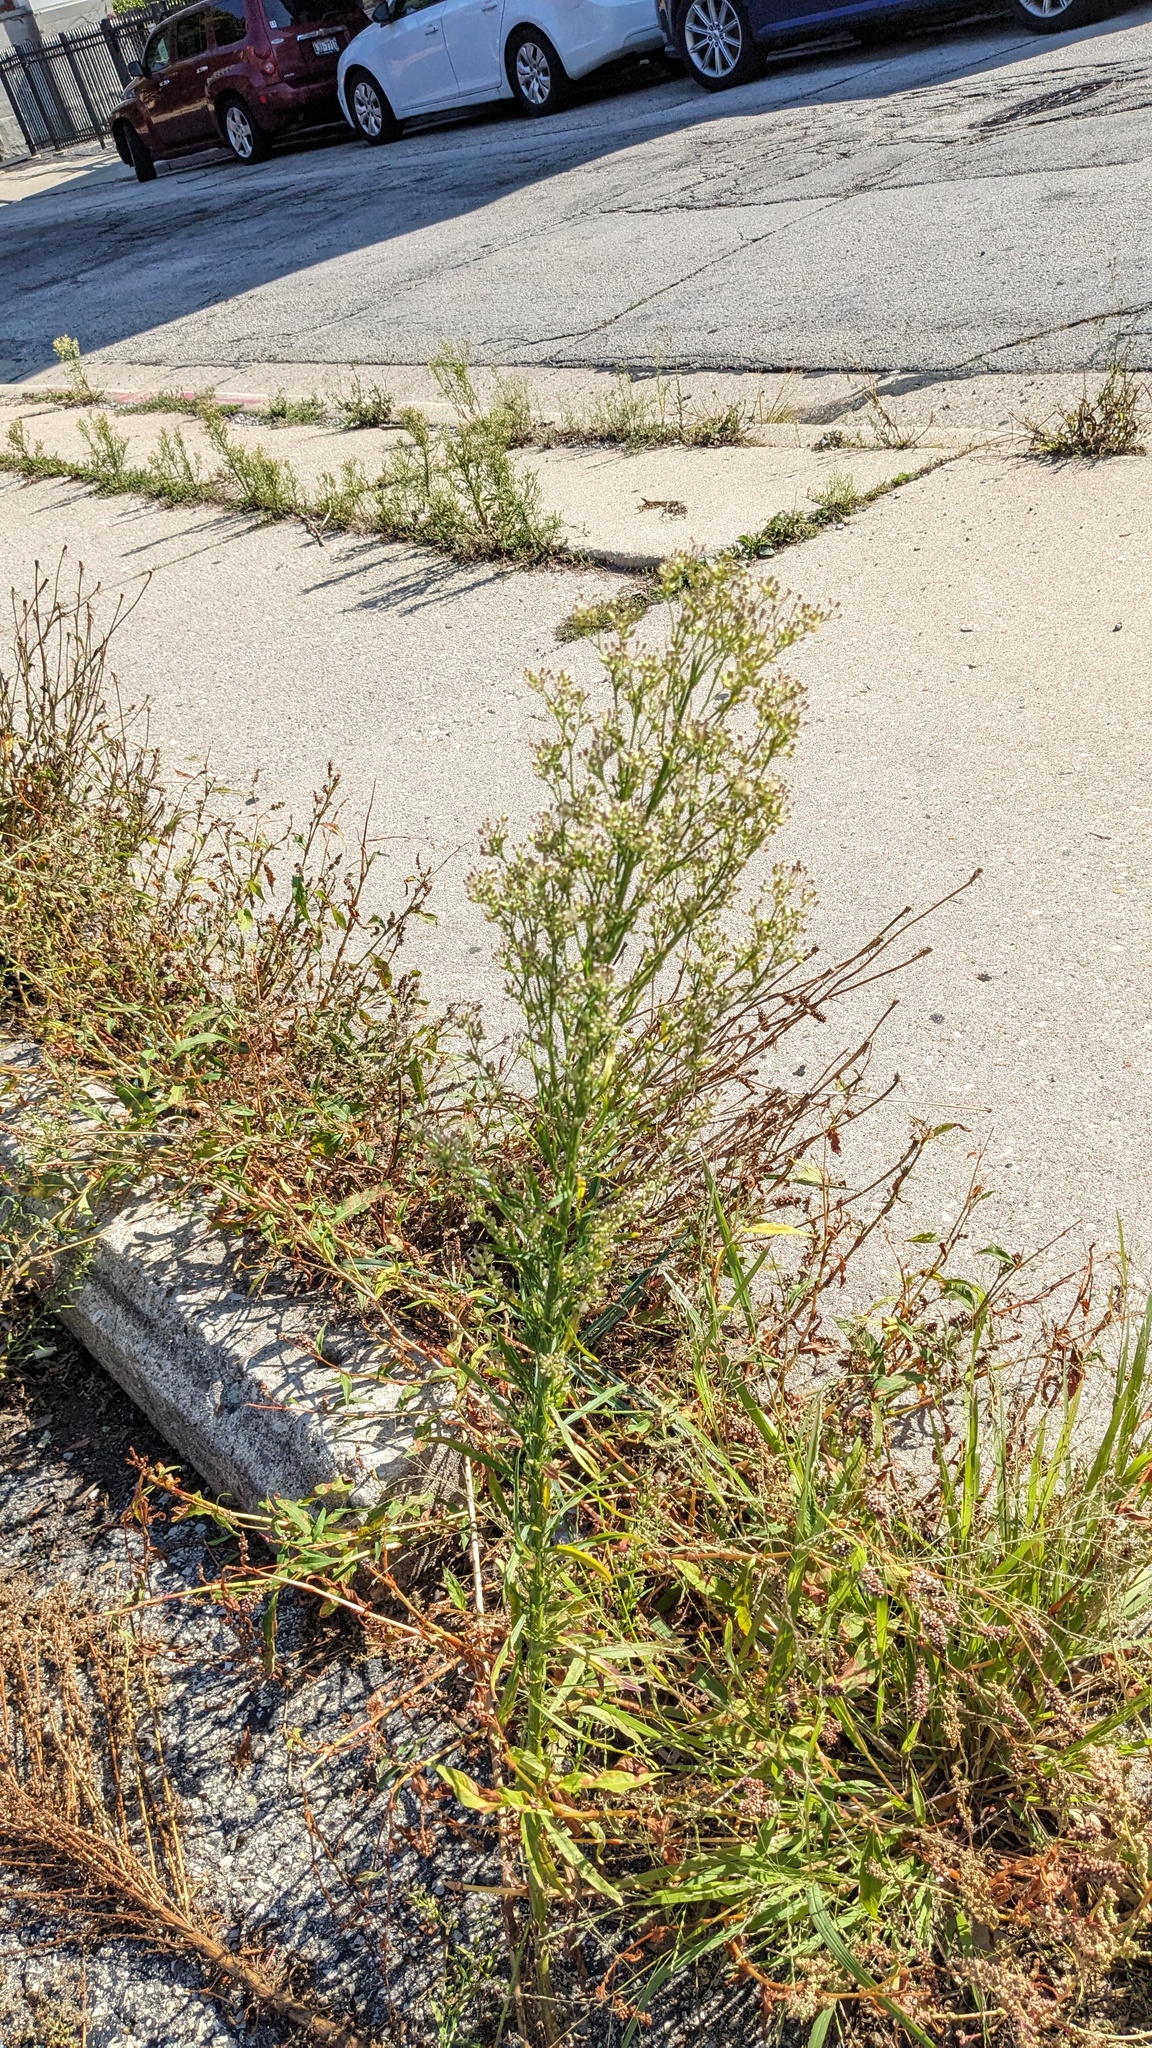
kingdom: Plantae
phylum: Tracheophyta
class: Magnoliopsida
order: Asterales
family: Asteraceae
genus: Erigeron
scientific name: Erigeron canadensis
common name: Canadian fleabane
